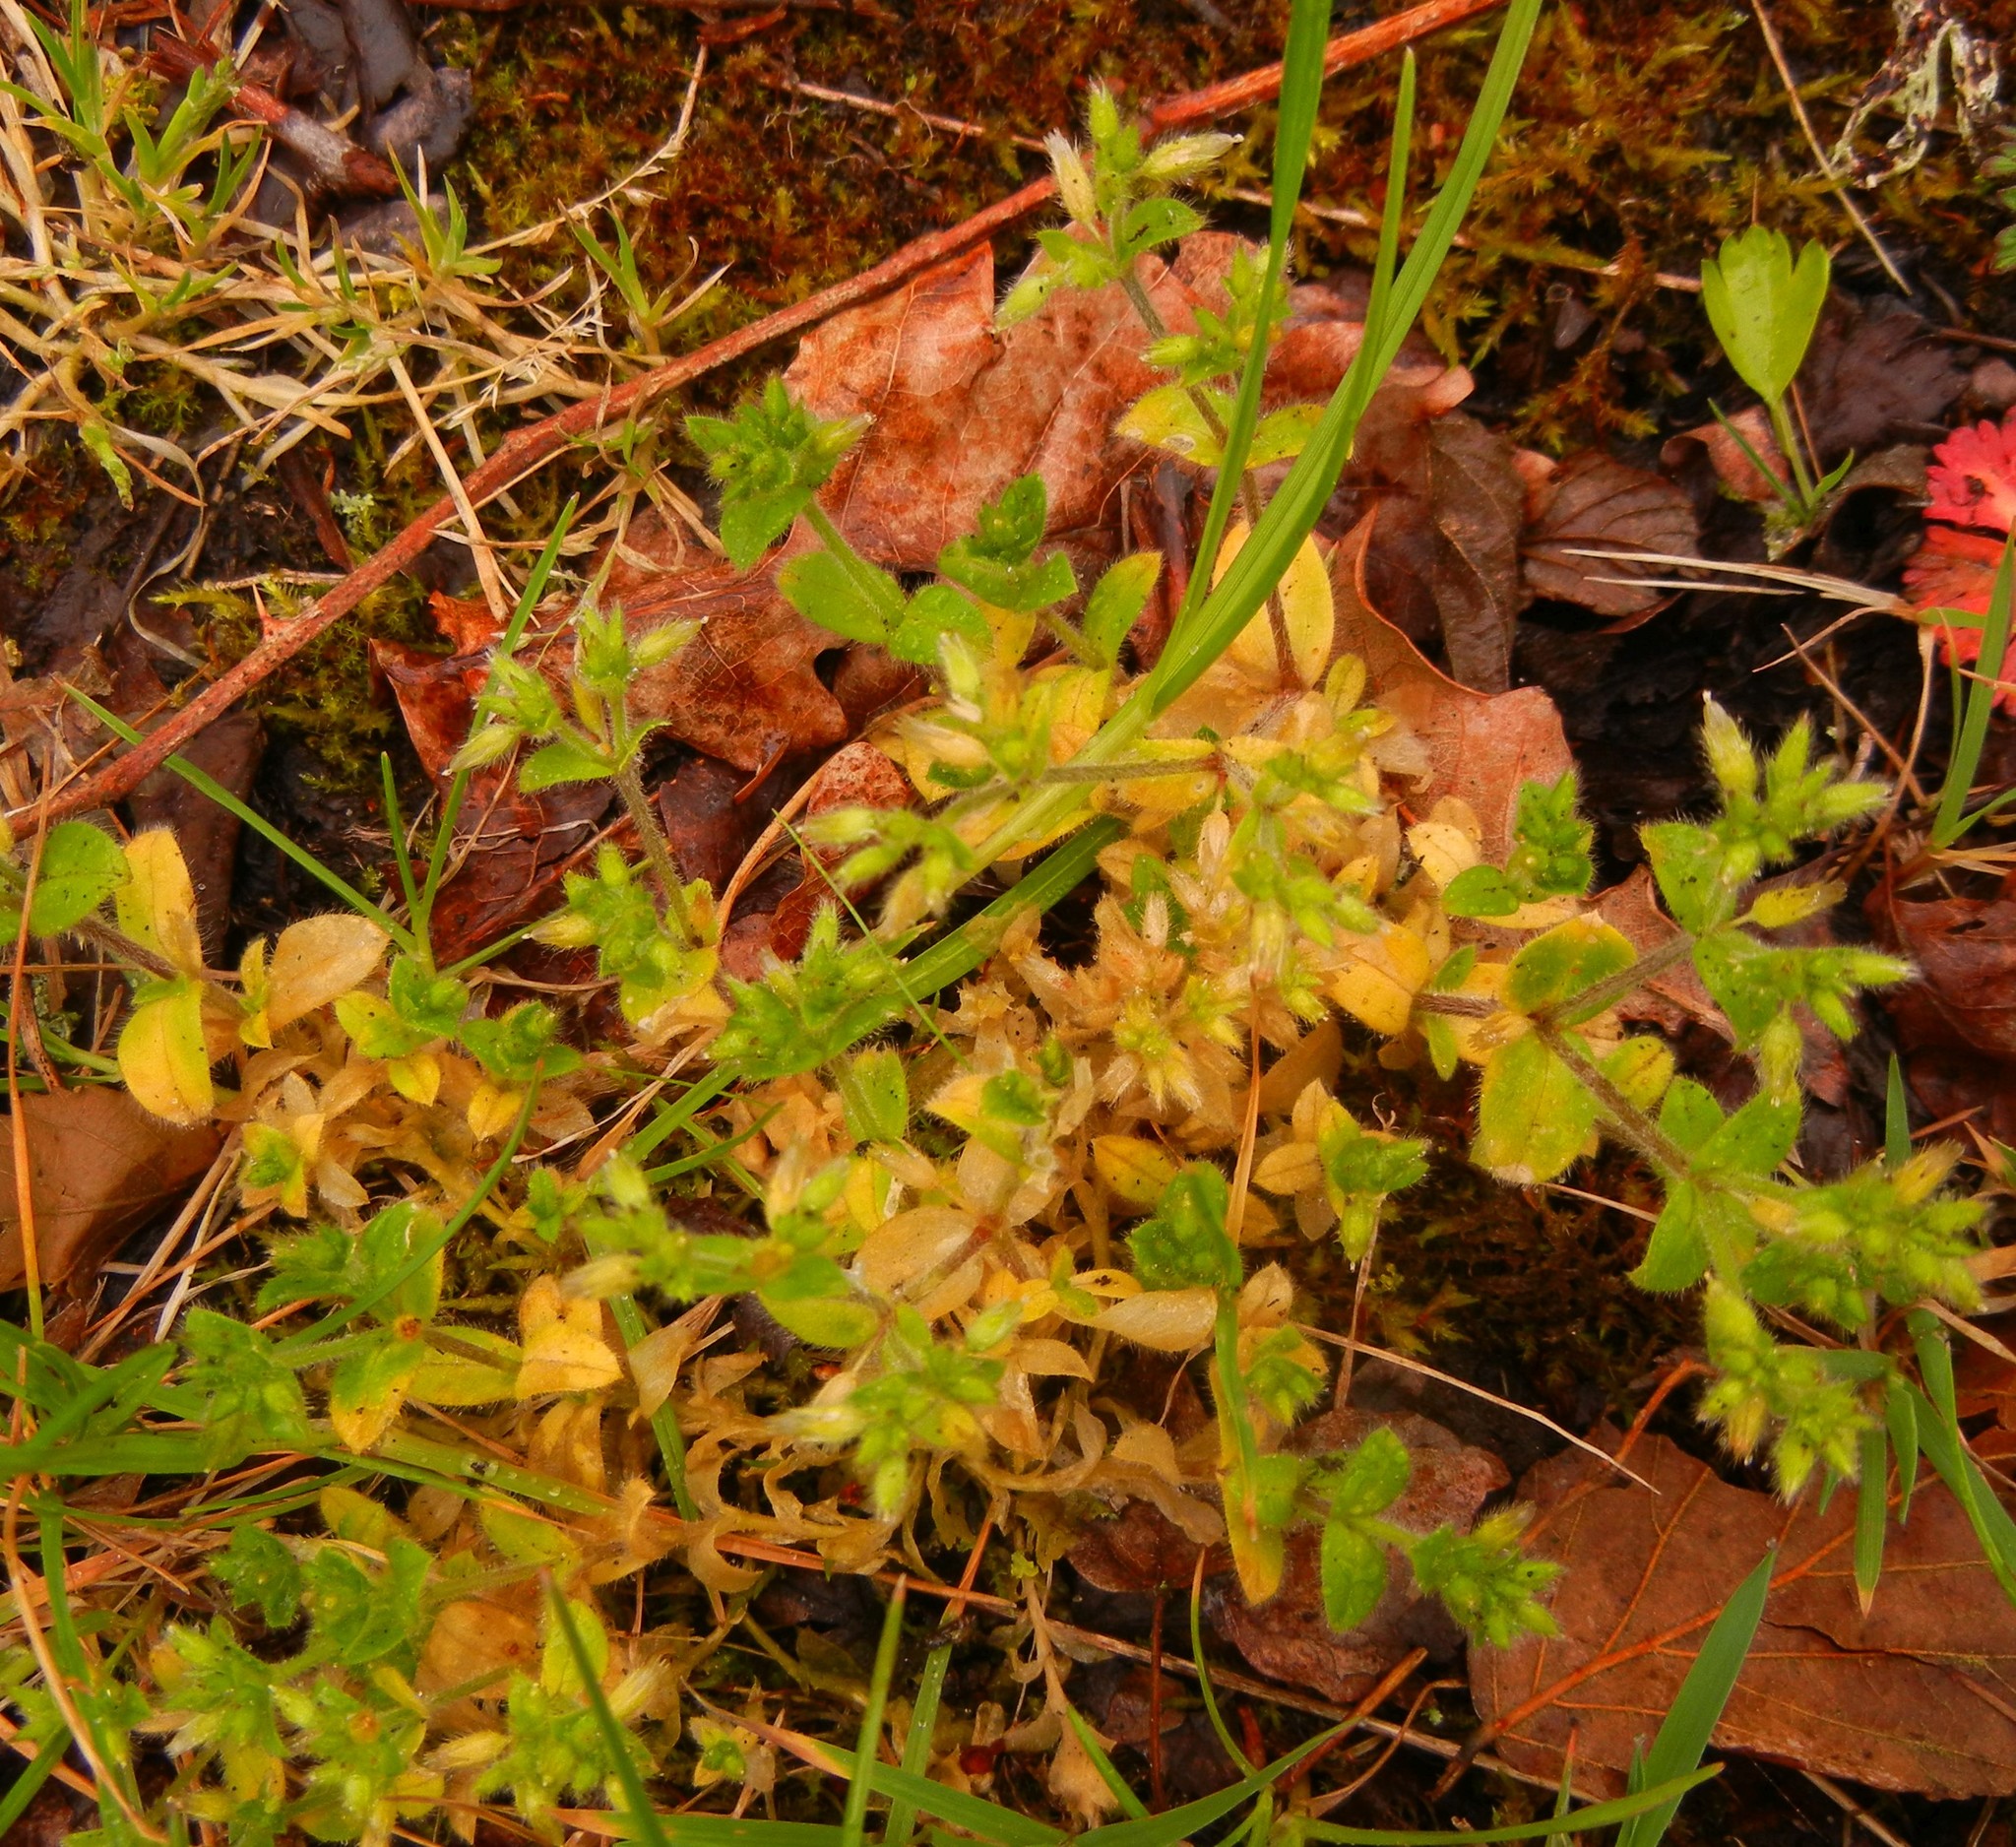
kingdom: Plantae
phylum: Tracheophyta
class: Magnoliopsida
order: Caryophyllales
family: Caryophyllaceae
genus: Cerastium
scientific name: Cerastium glomeratum
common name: Sticky chickweed
